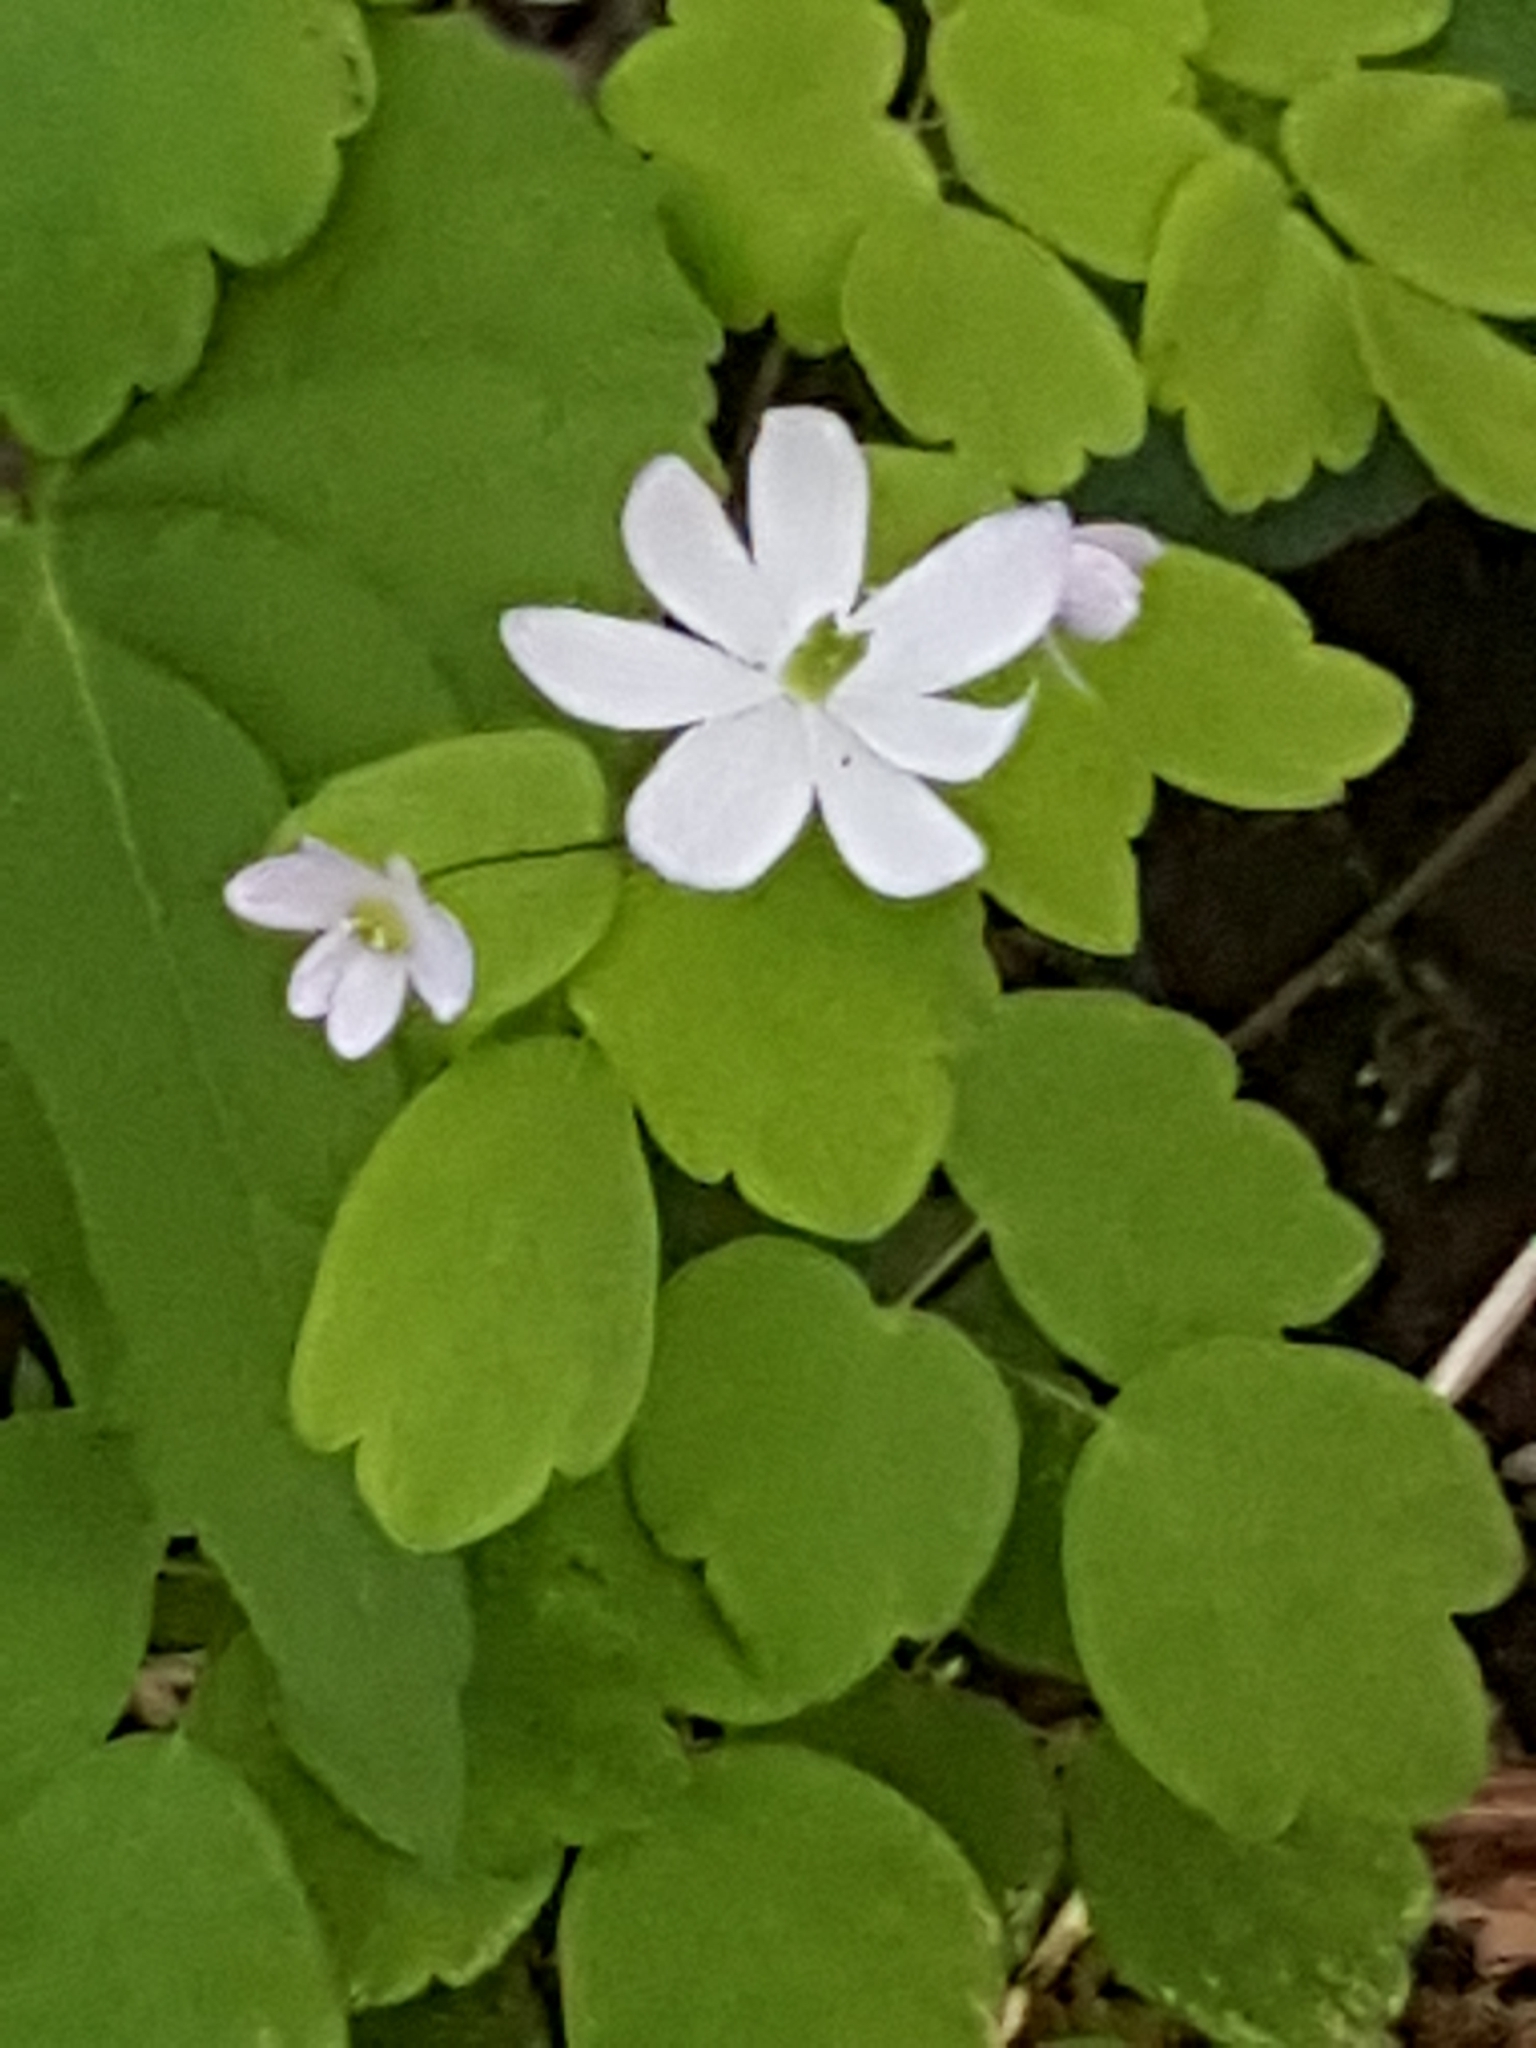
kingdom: Plantae
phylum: Tracheophyta
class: Magnoliopsida
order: Ranunculales
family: Ranunculaceae
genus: Thalictrum
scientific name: Thalictrum thalictroides
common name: Rue-anemone
